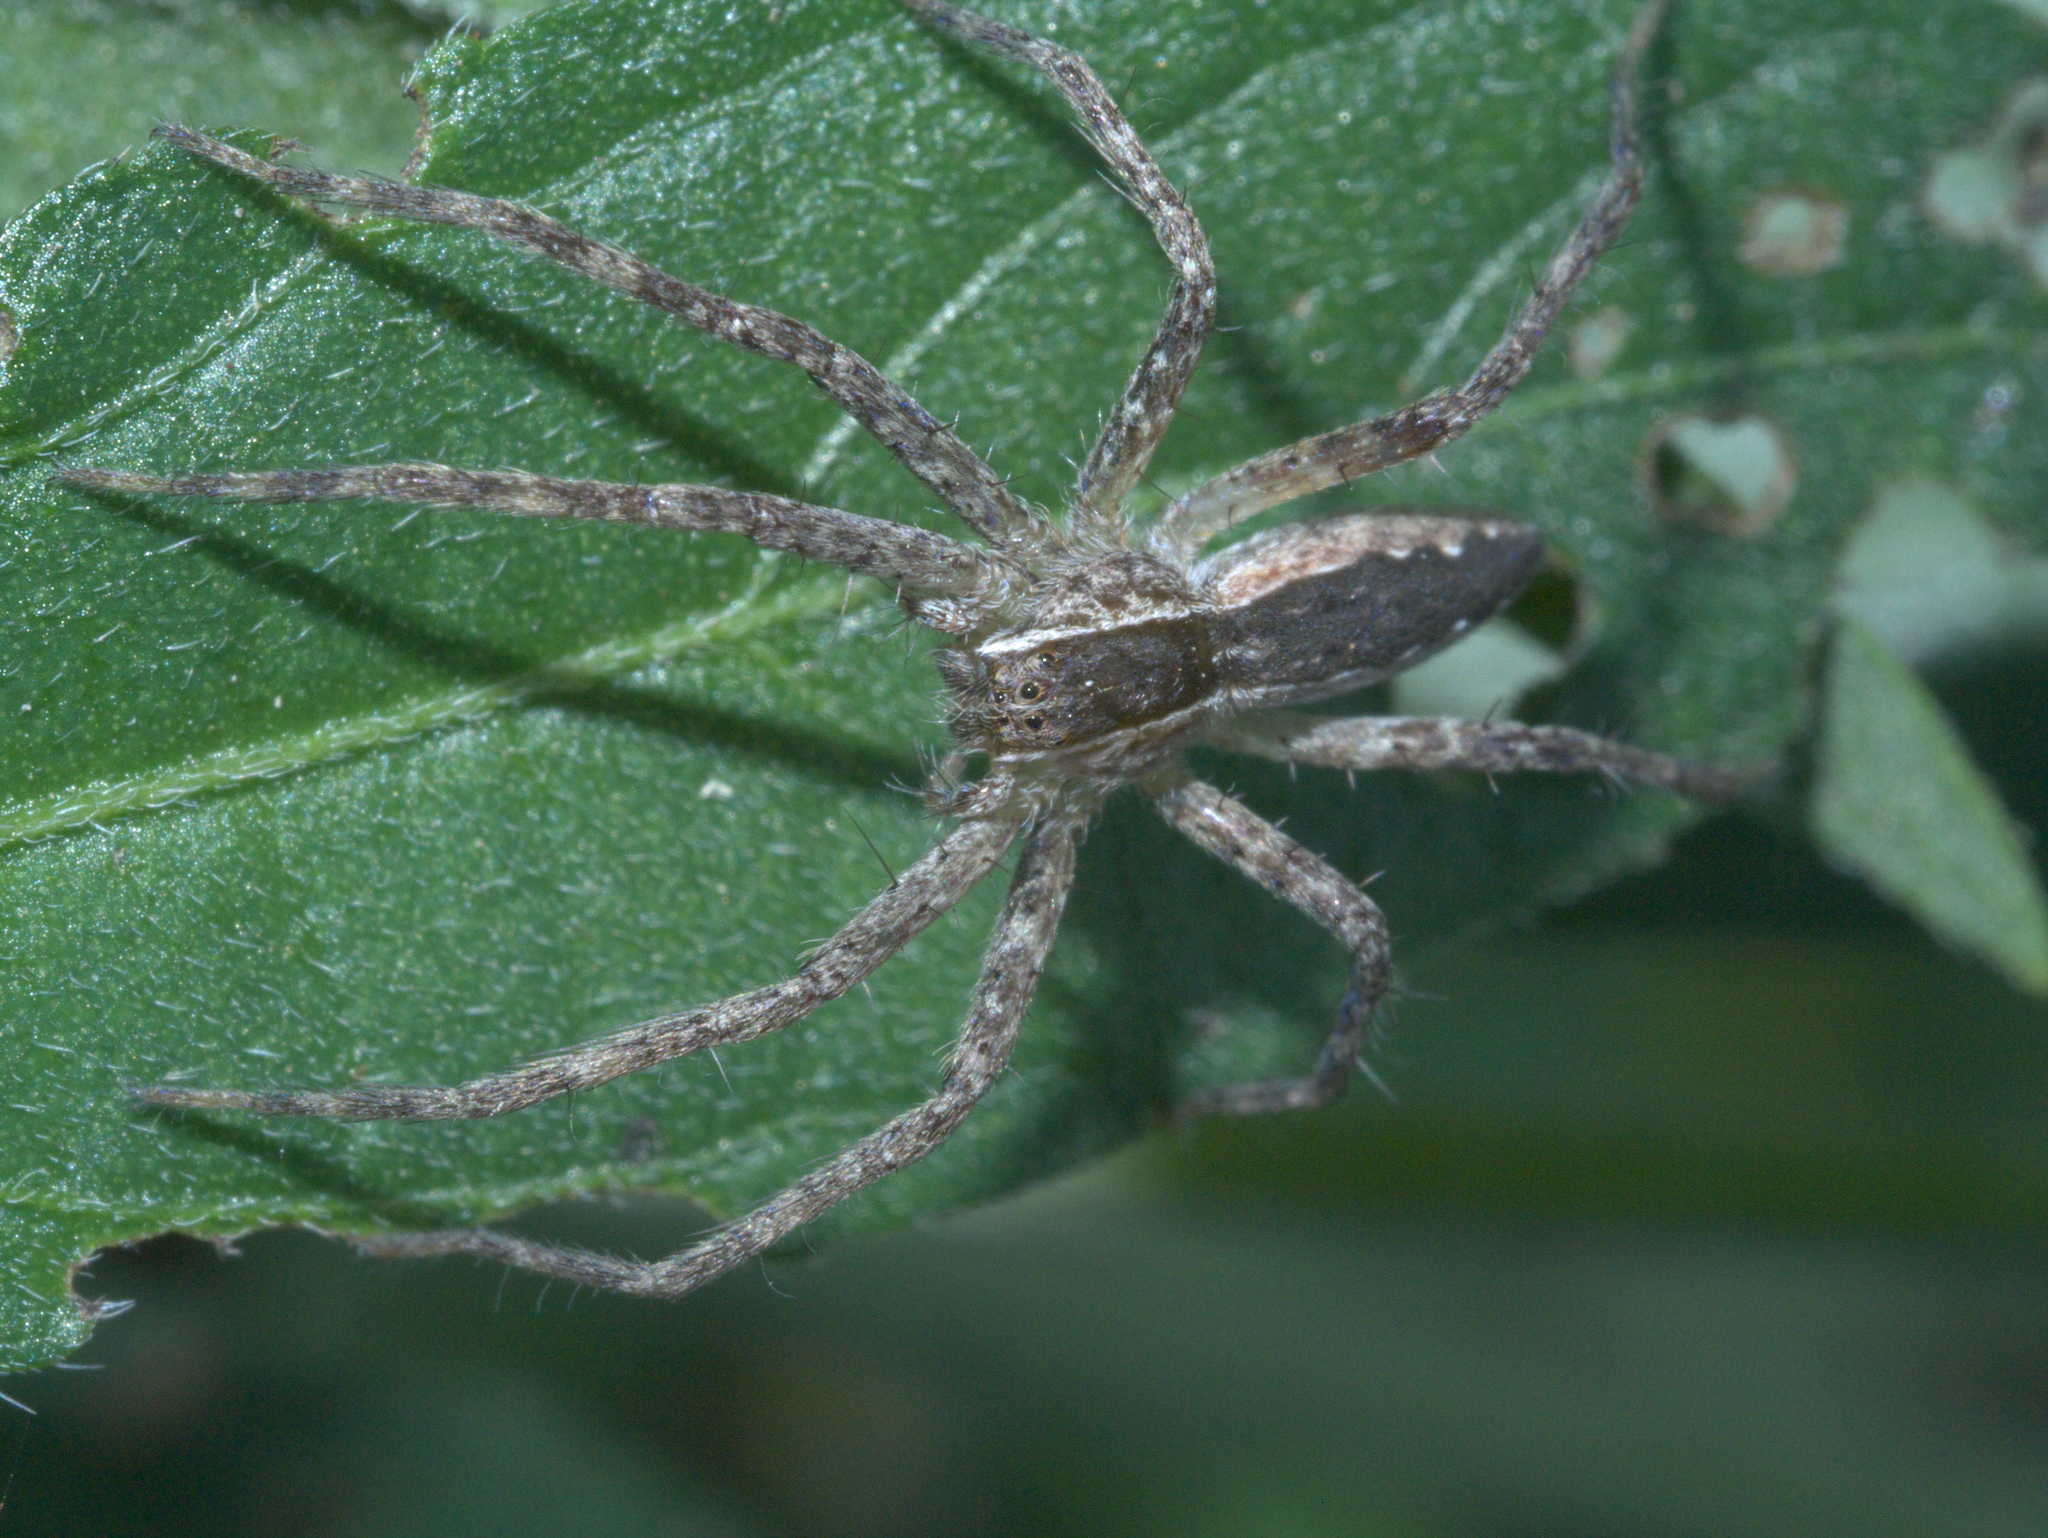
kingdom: Animalia
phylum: Arthropoda
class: Arachnida
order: Araneae
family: Pisauridae
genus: Pisaurina
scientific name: Pisaurina mira
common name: American nursery web spider
